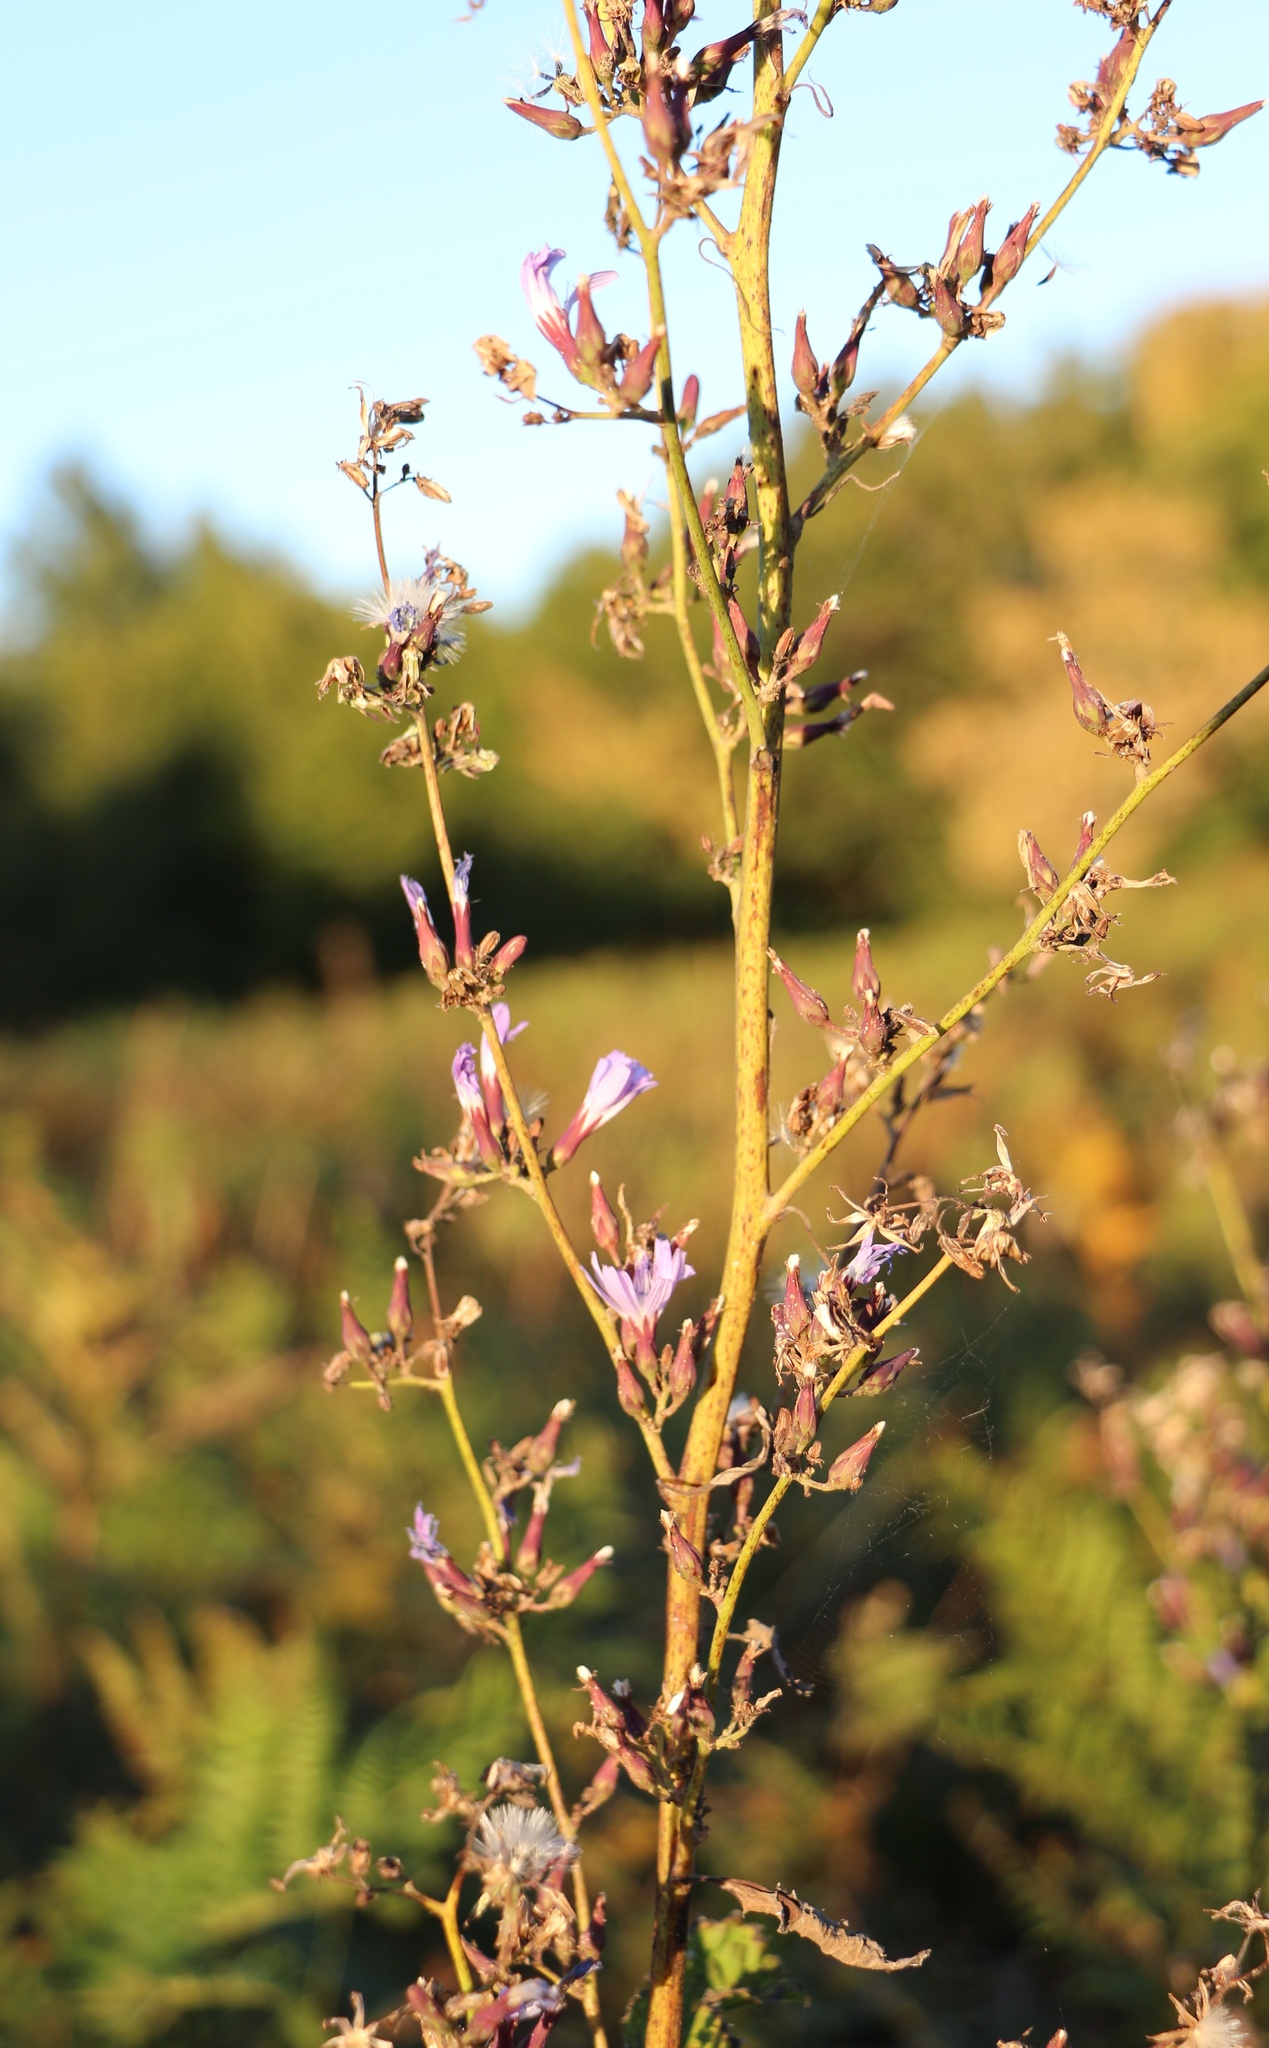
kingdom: Plantae
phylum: Tracheophyta
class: Magnoliopsida
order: Asterales
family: Asteraceae
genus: Cicerbita
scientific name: Cicerbita prenanthoides
